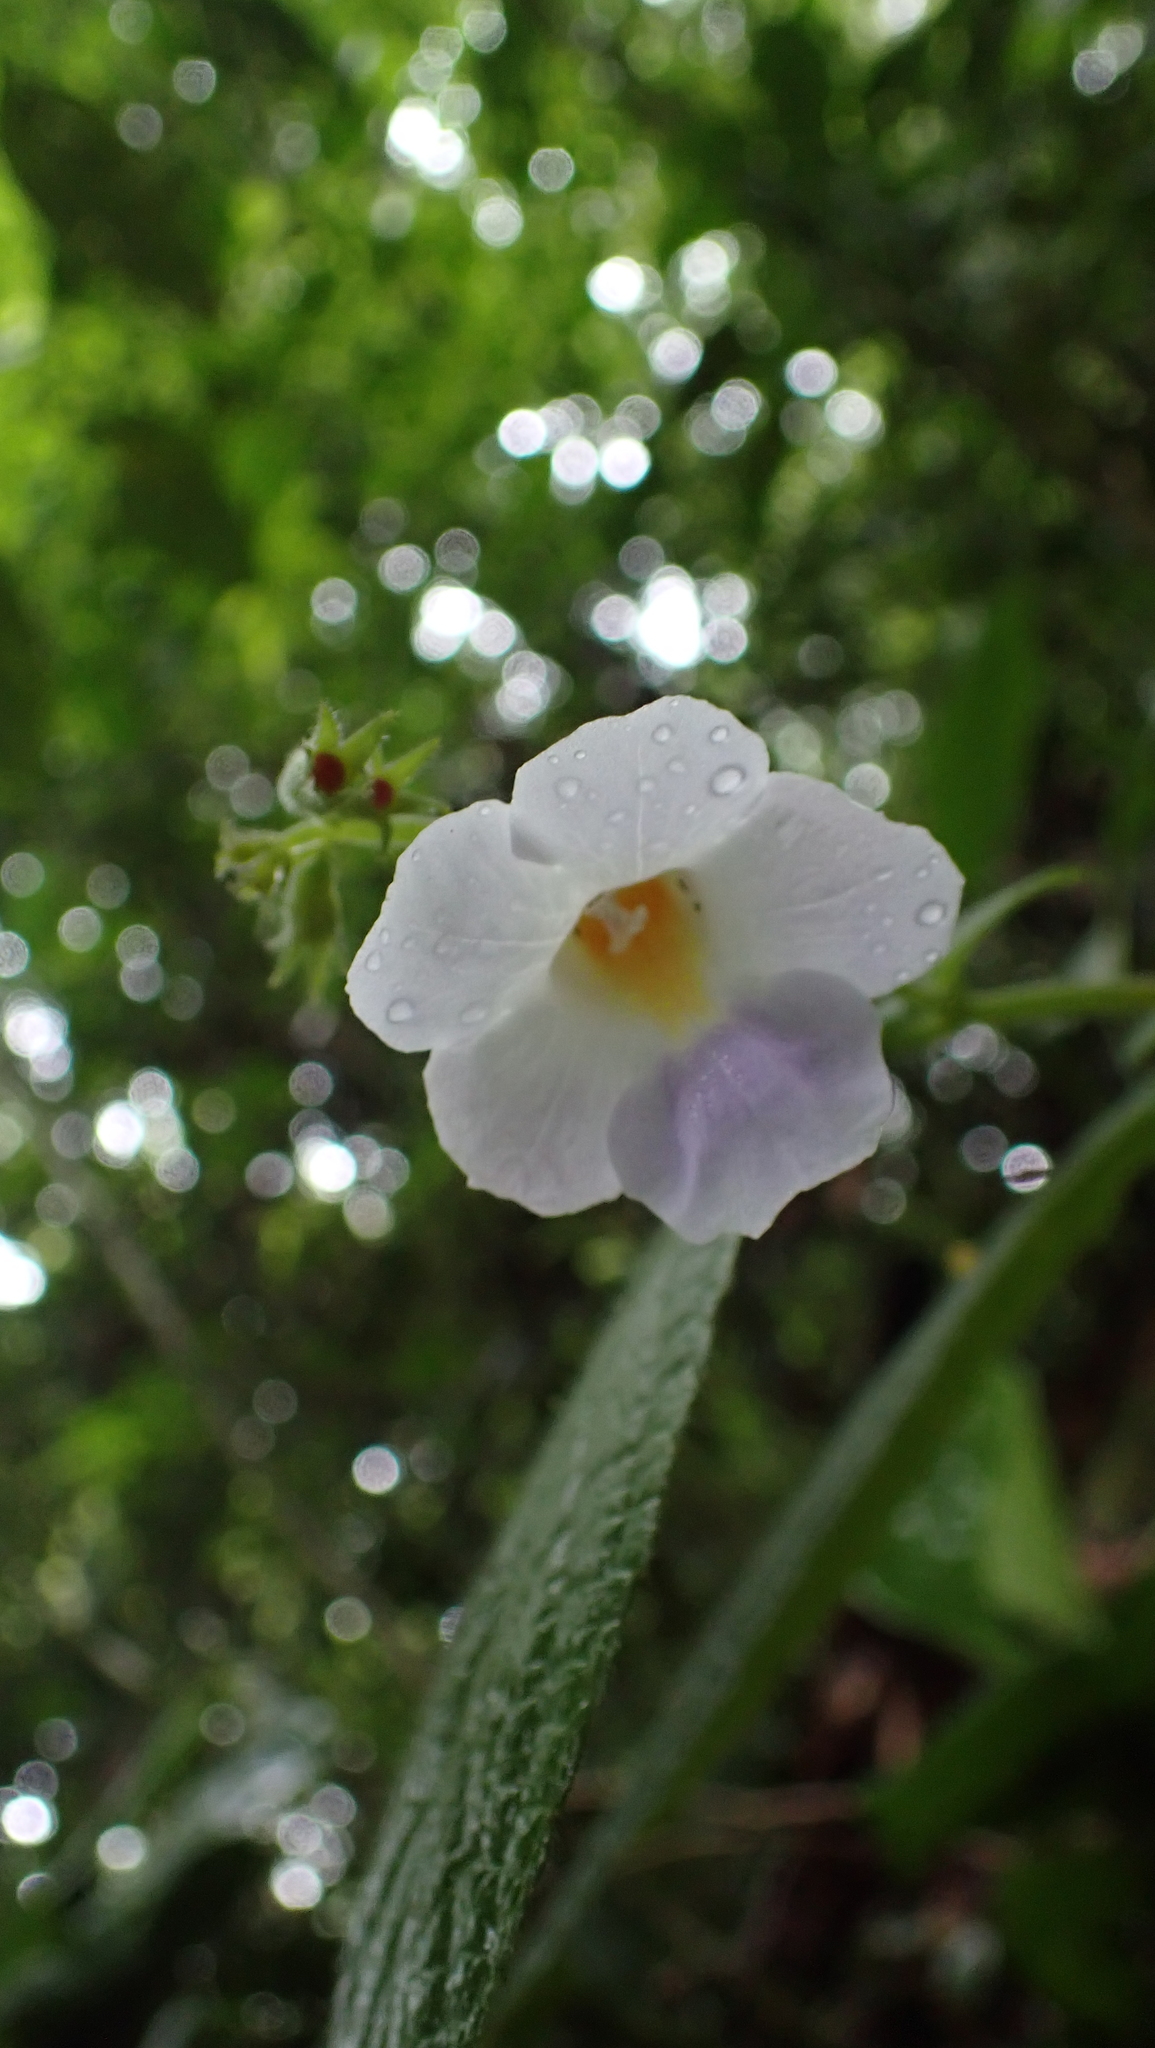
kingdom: Plantae
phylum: Tracheophyta
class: Magnoliopsida
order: Lamiales
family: Gesneriaceae
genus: Monopyle
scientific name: Monopyle puberula
